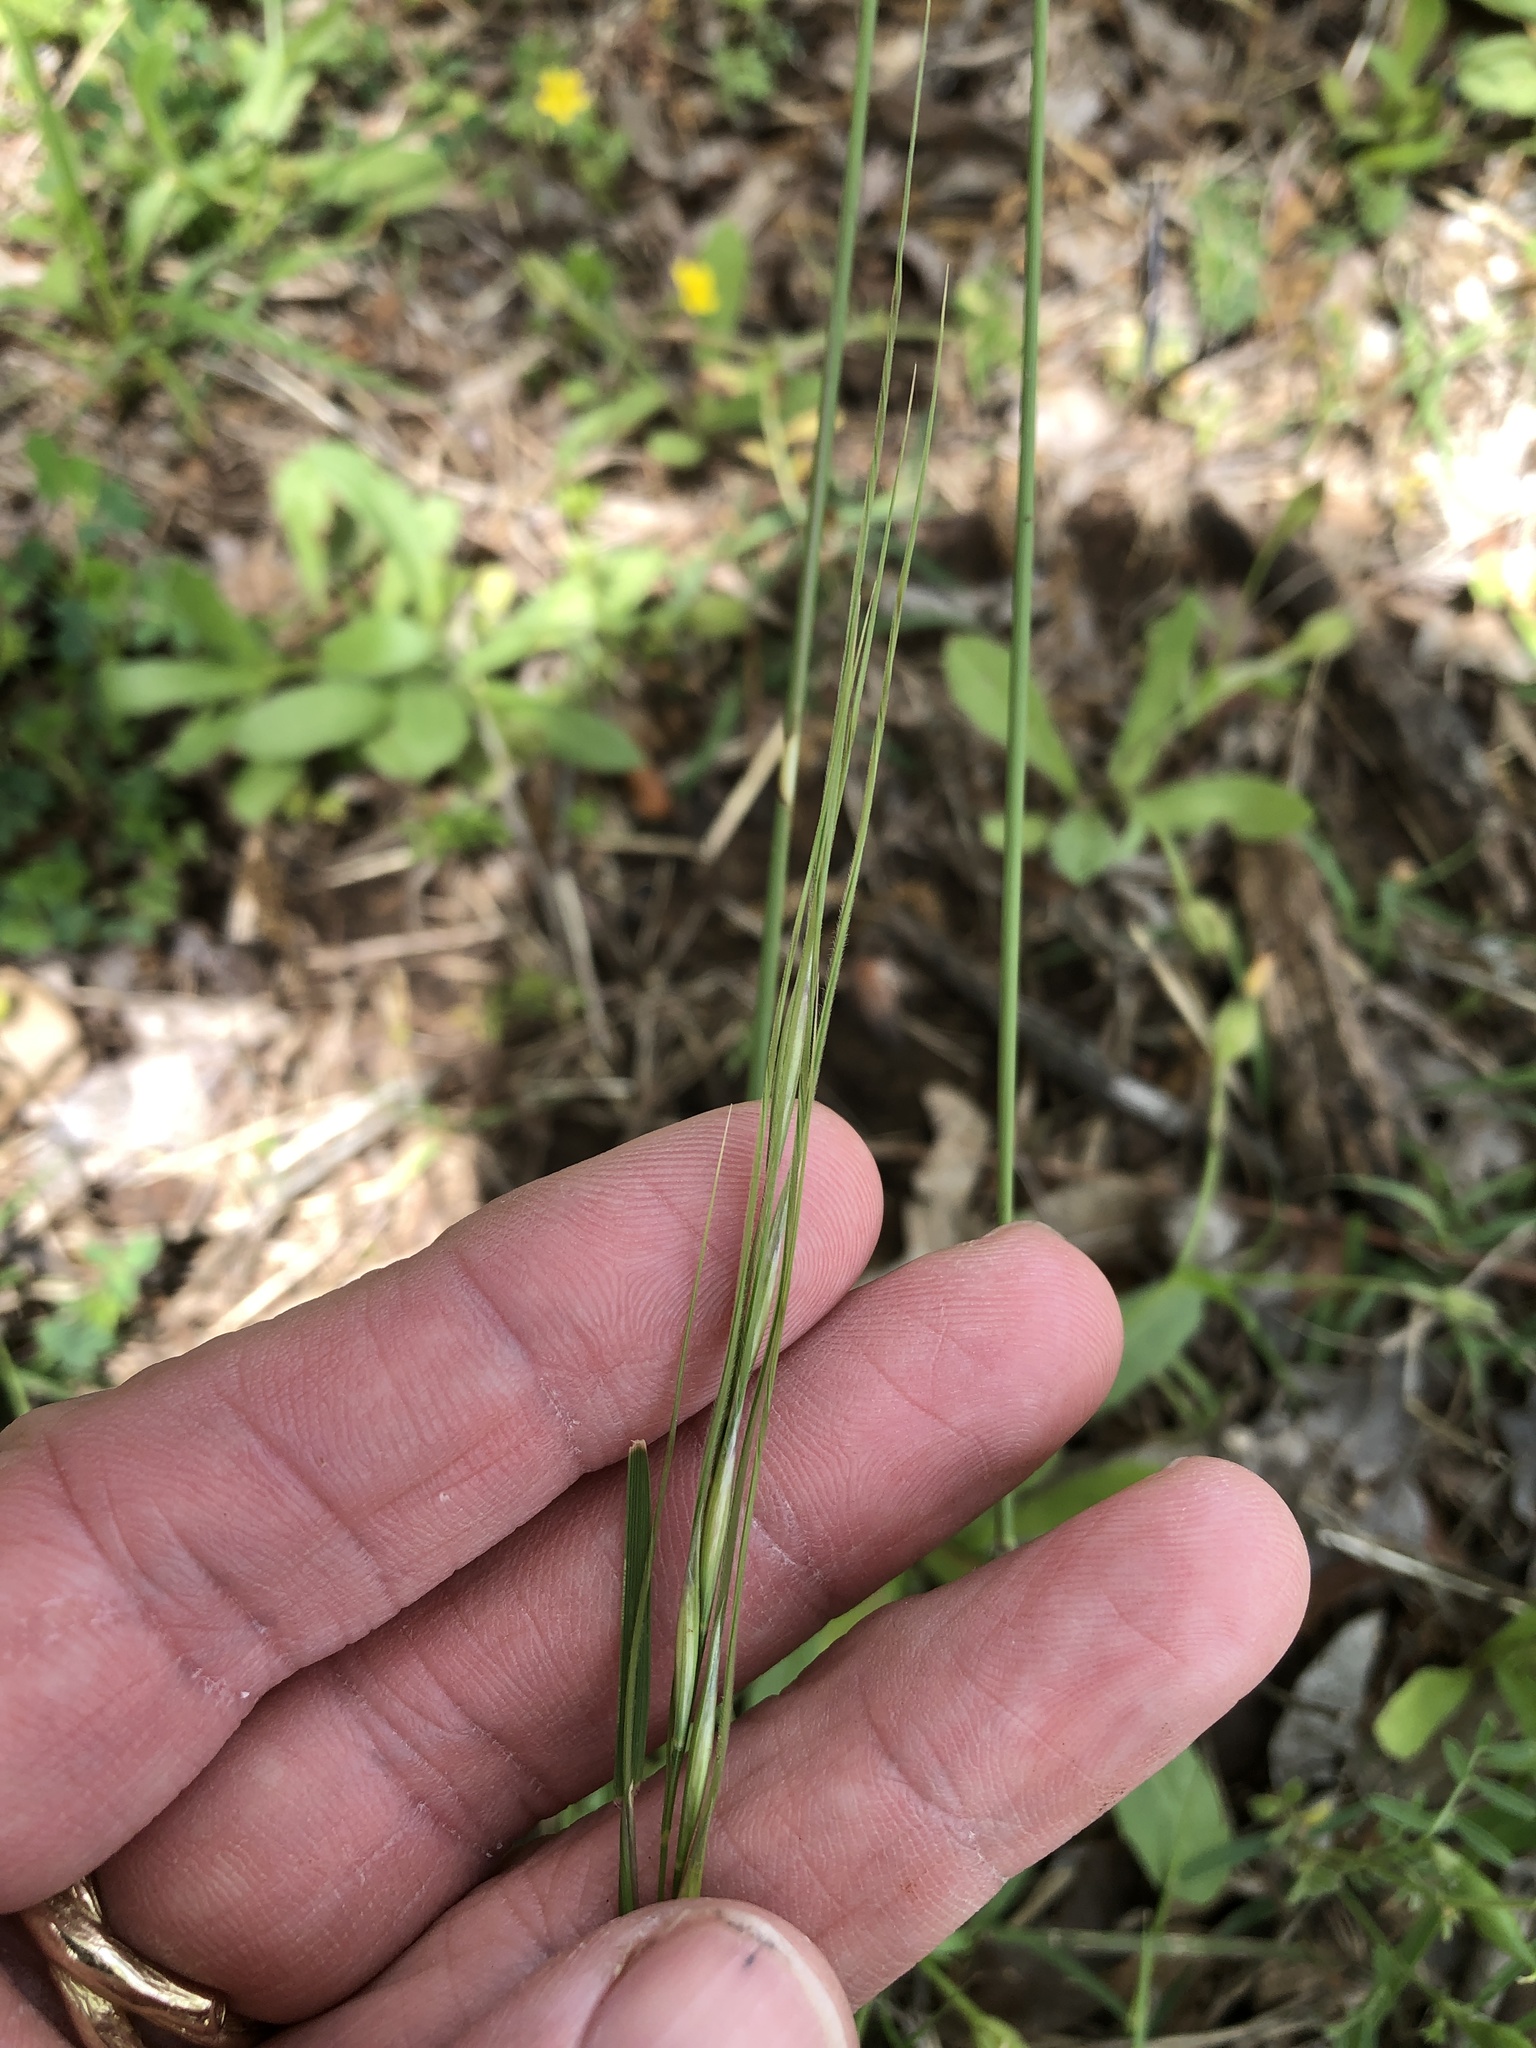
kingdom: Plantae
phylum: Tracheophyta
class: Liliopsida
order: Poales
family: Poaceae
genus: Nassella
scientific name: Nassella leucotricha
